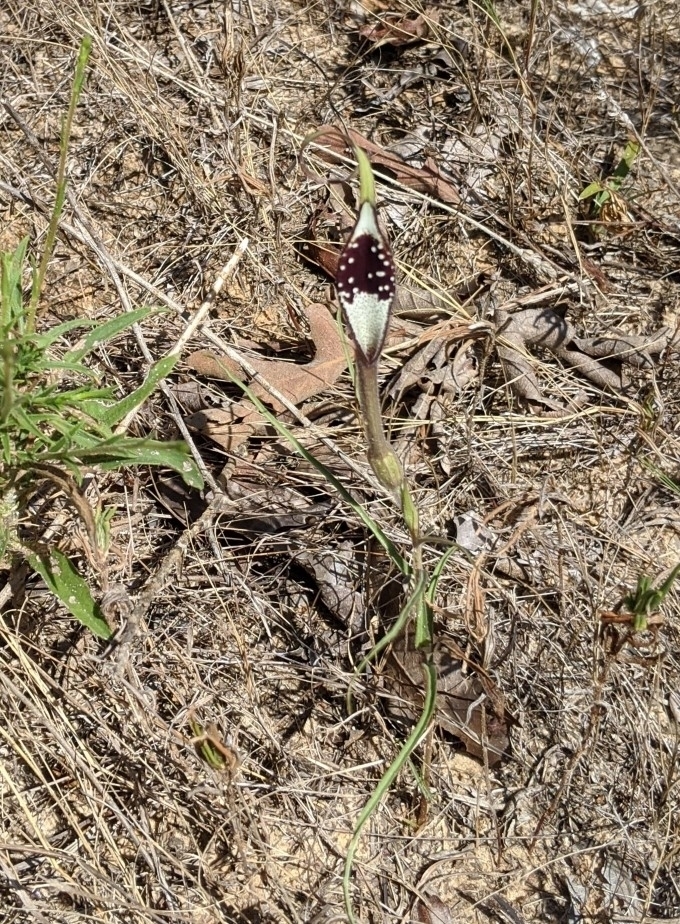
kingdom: Plantae
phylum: Tracheophyta
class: Magnoliopsida
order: Piperales
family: Aristolochiaceae
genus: Aristolochia
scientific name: Aristolochia erecta
